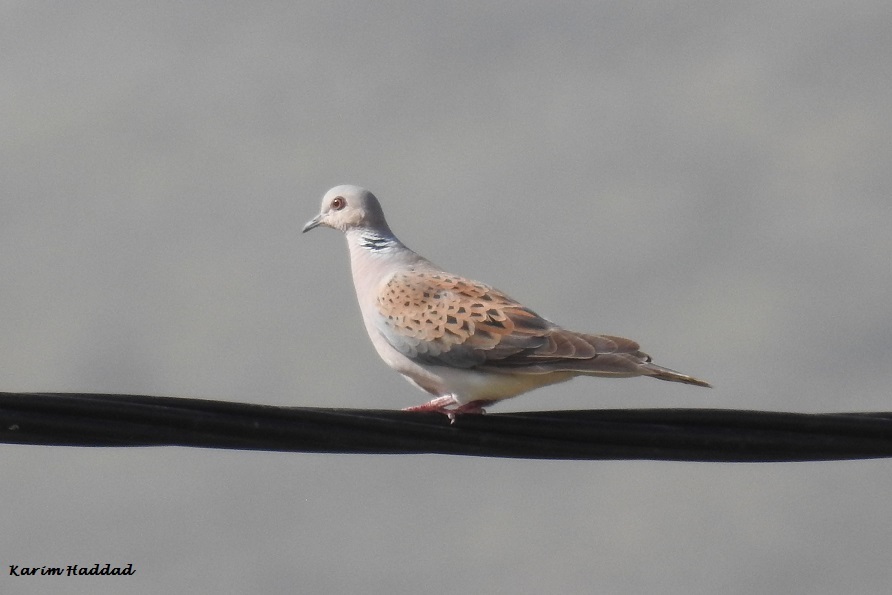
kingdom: Animalia
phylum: Chordata
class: Aves
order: Columbiformes
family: Columbidae
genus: Streptopelia
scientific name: Streptopelia turtur
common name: European turtle dove
